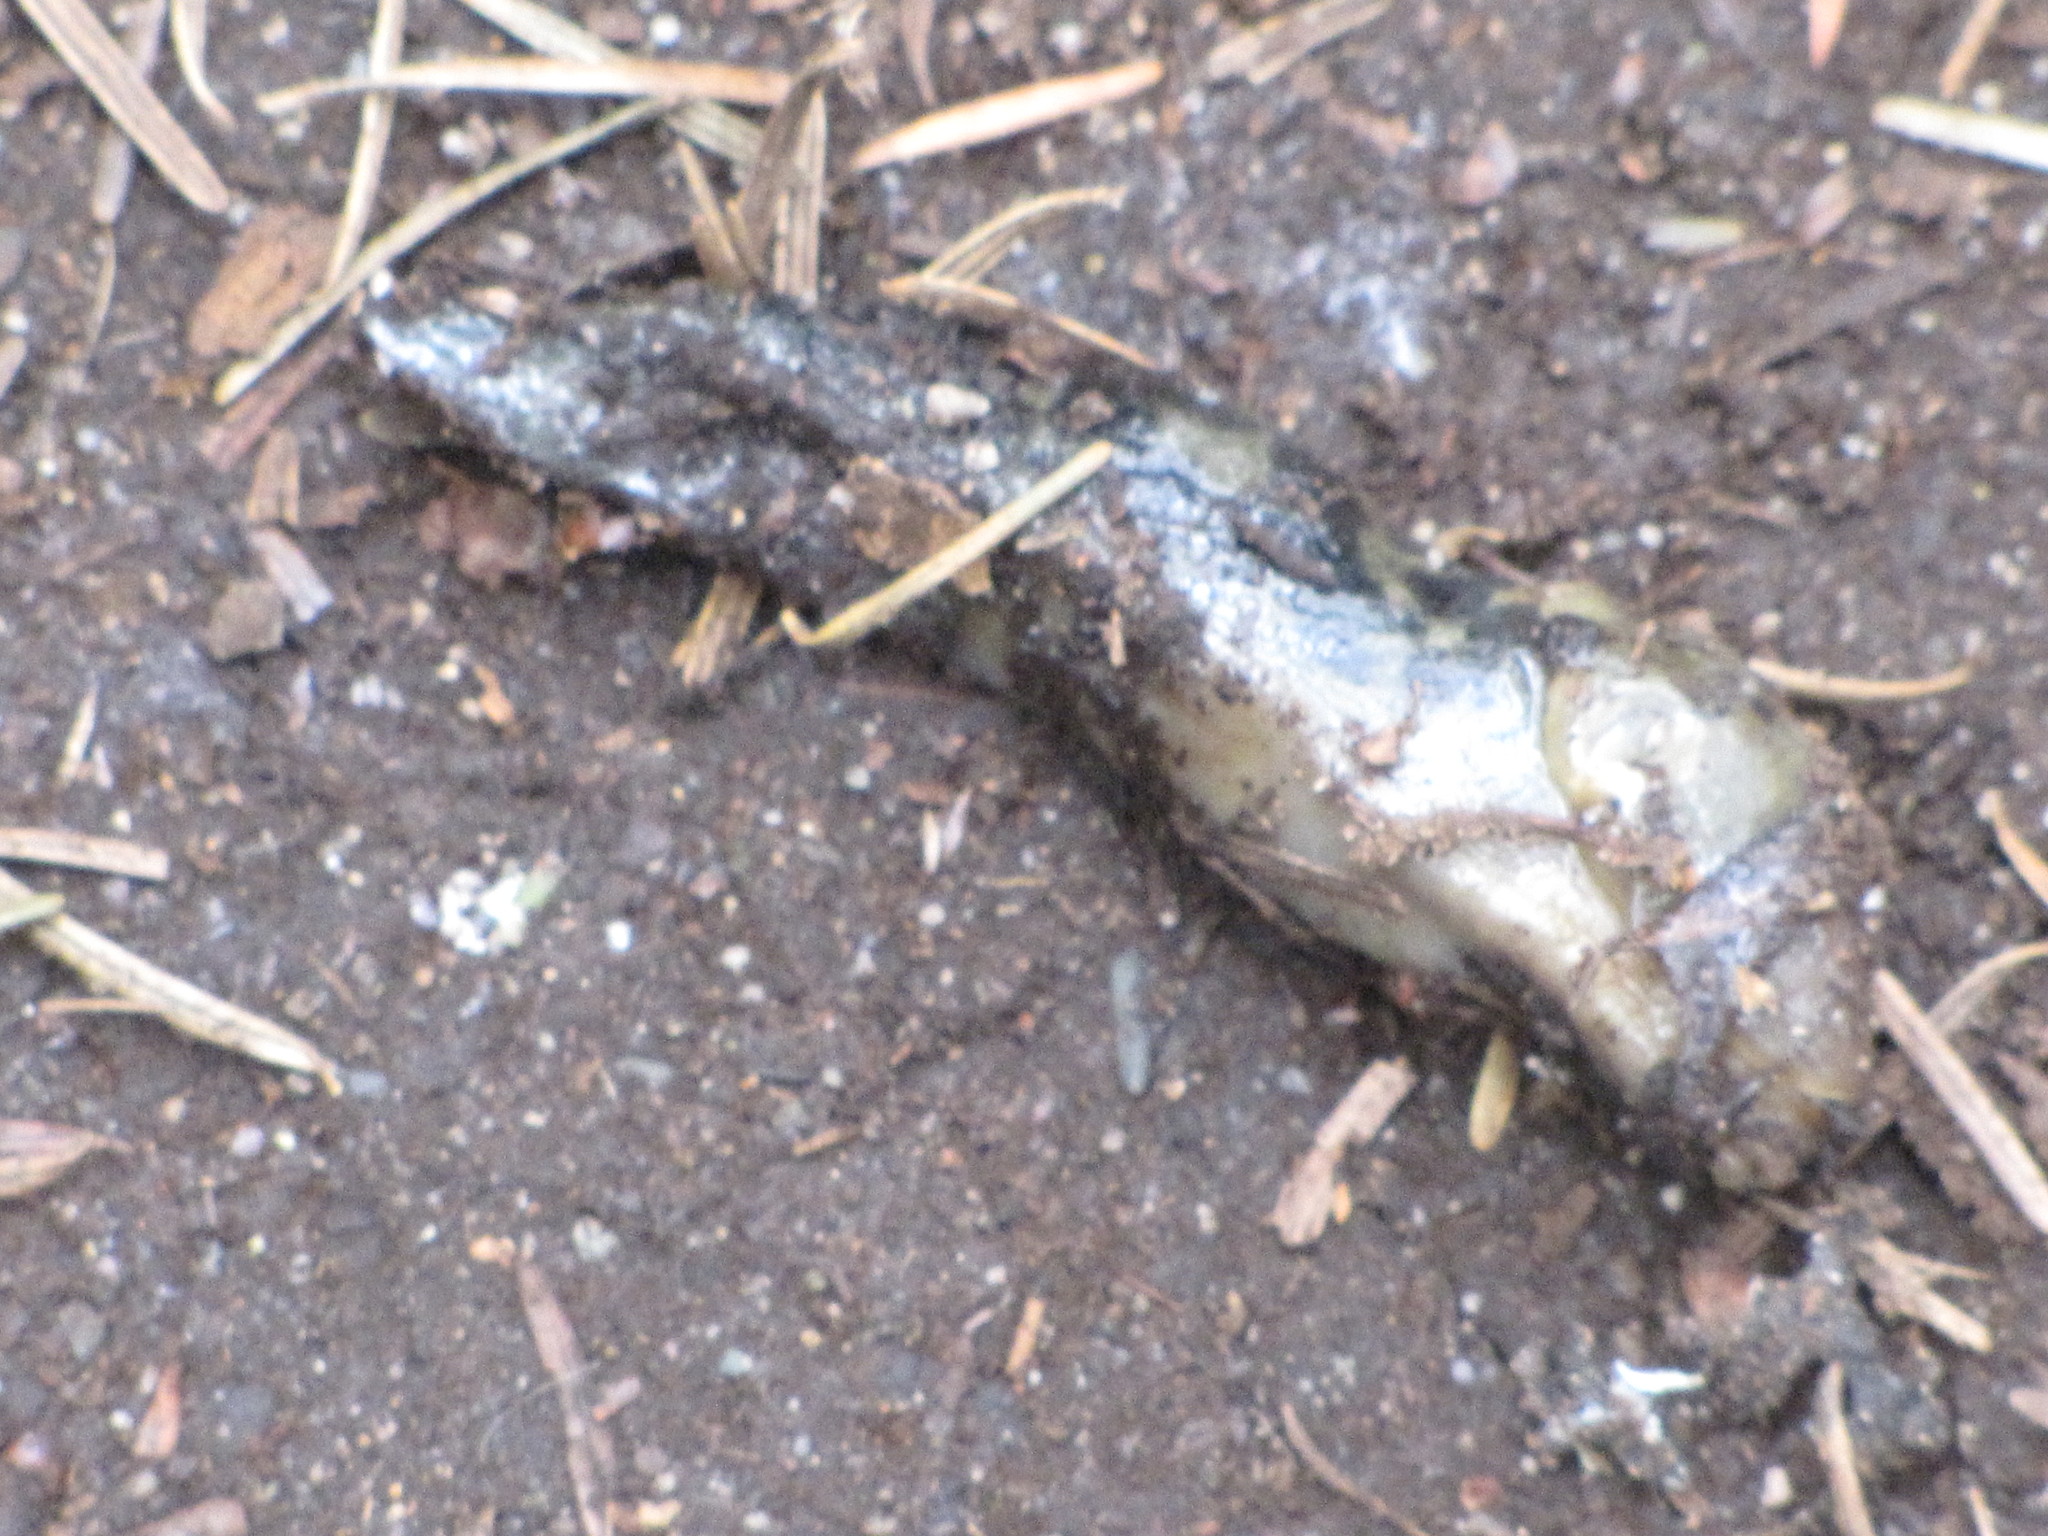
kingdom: Animalia
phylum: Mollusca
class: Gastropoda
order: Stylommatophora
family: Ariolimacidae
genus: Ariolimax
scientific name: Ariolimax columbianus
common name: Pacific banana slug
